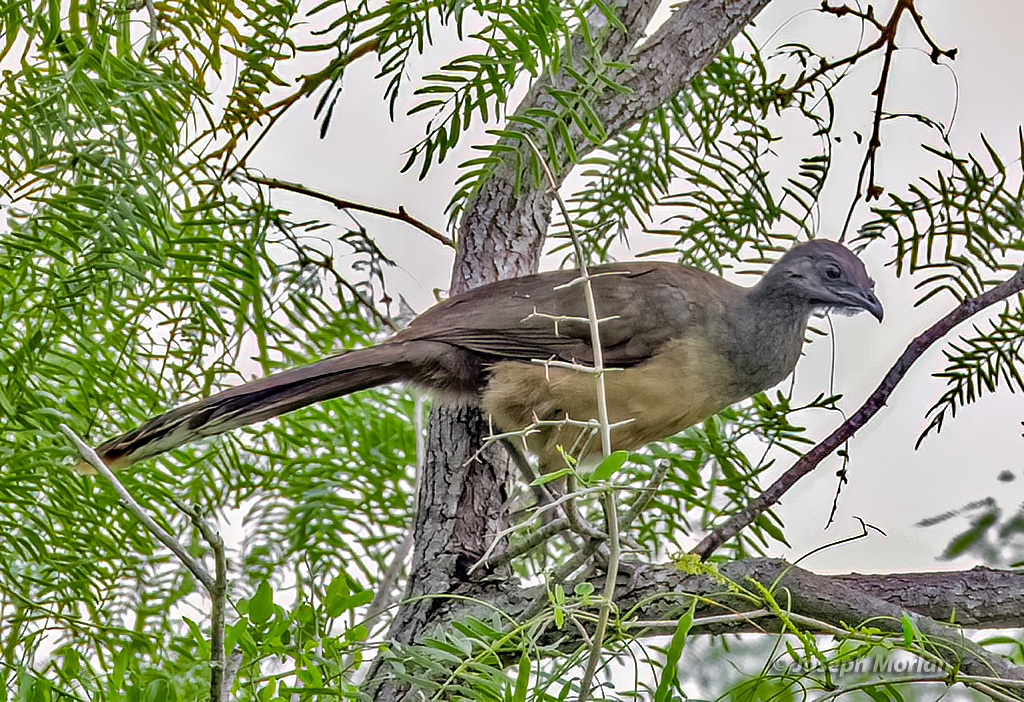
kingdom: Animalia
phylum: Chordata
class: Aves
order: Galliformes
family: Cracidae
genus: Ortalis
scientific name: Ortalis vetula
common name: Plain chachalaca
